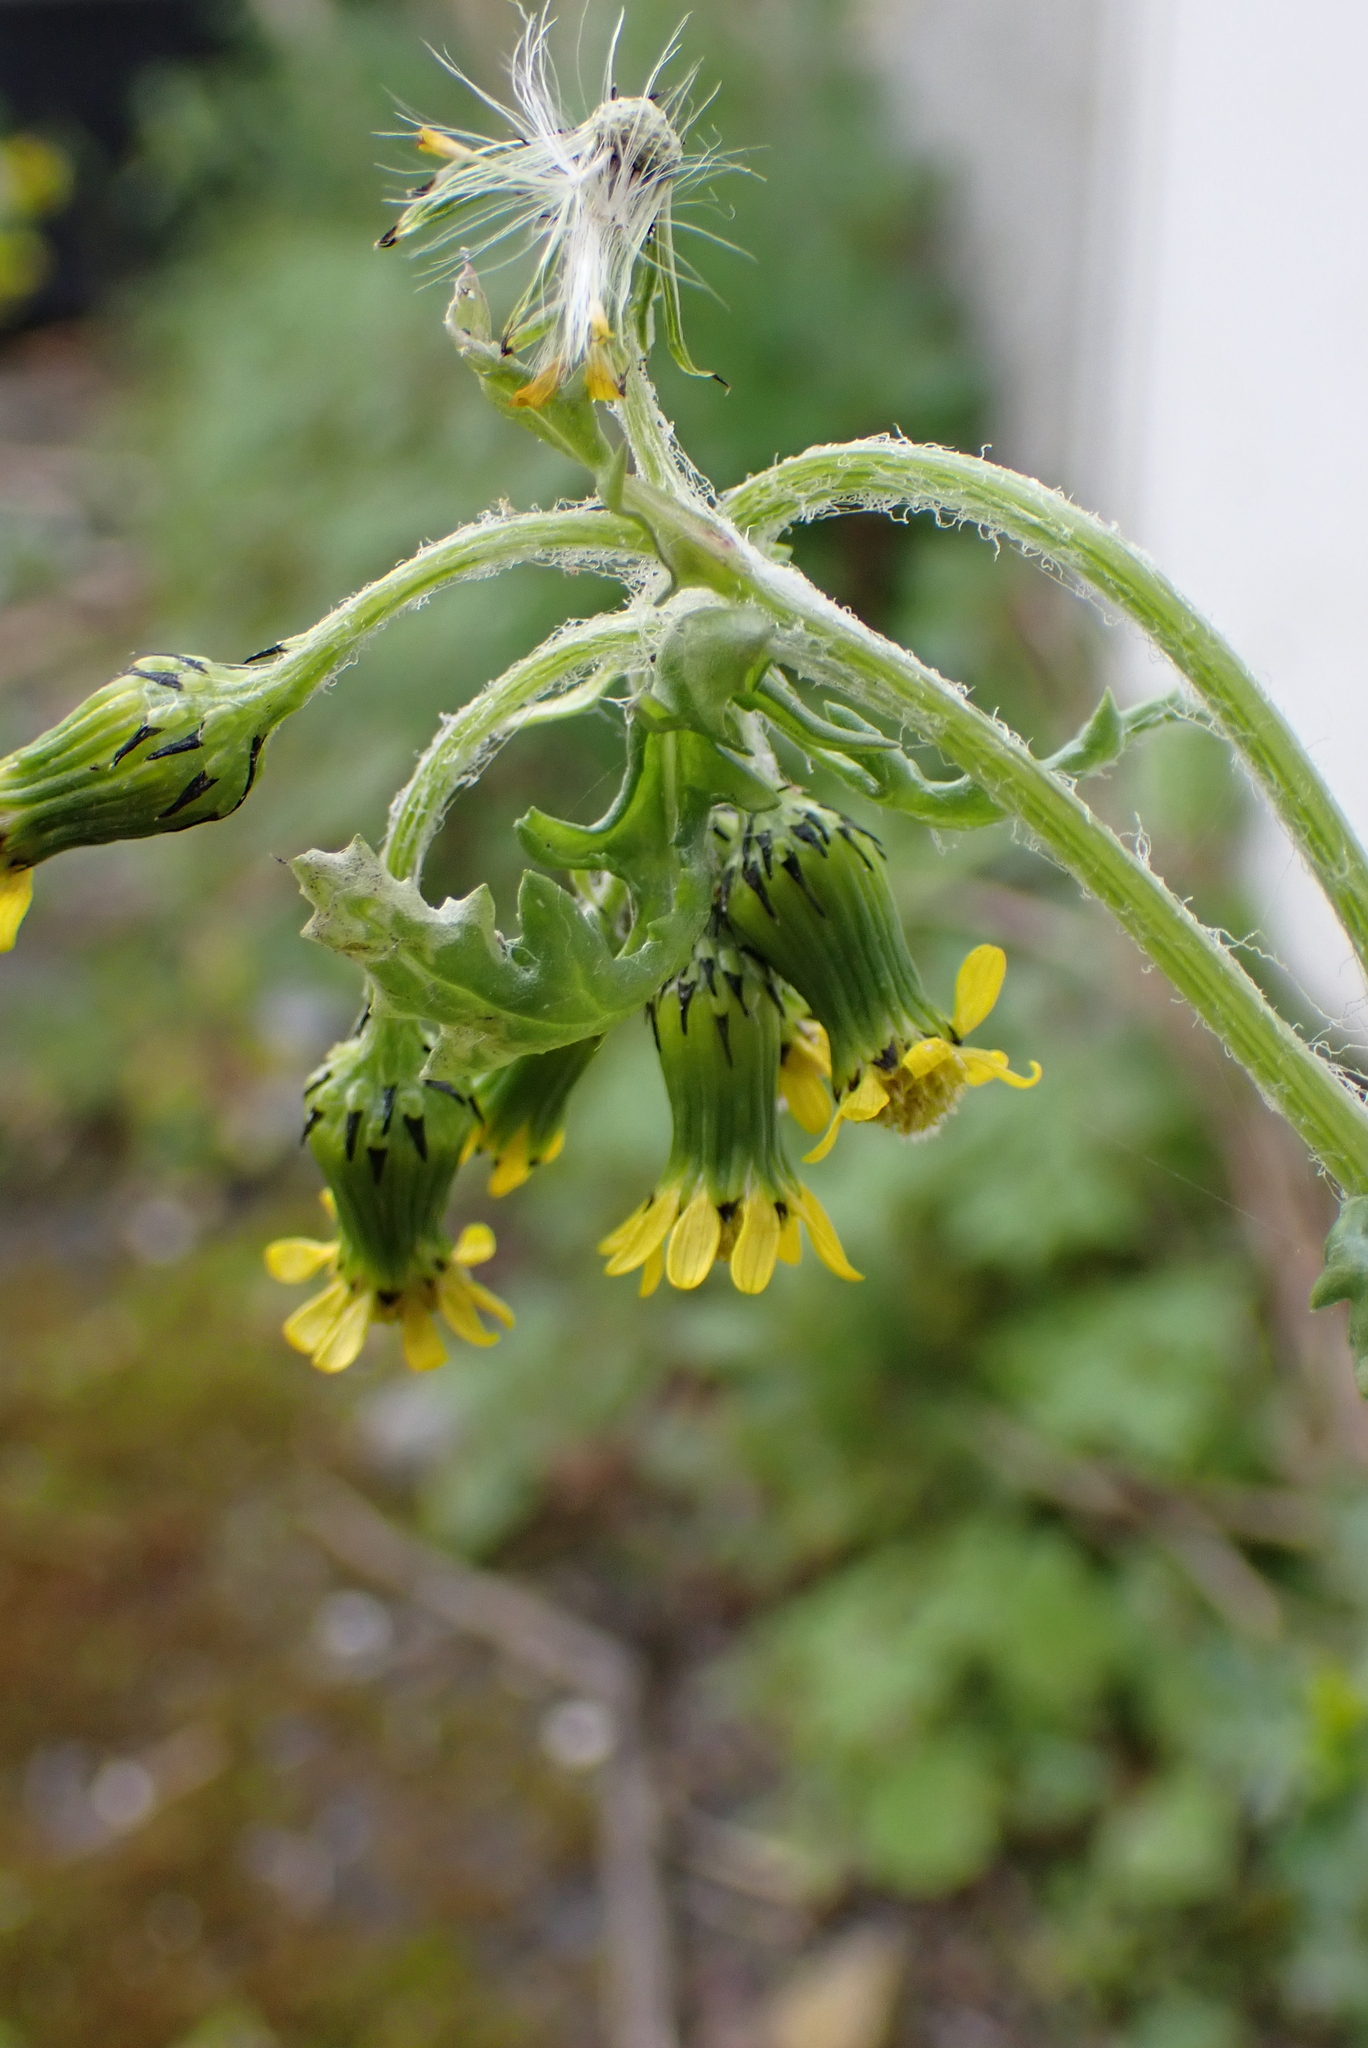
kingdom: Plantae
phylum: Tracheophyta
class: Magnoliopsida
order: Asterales
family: Asteraceae
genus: Senecio
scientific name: Senecio vulgaris
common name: Old-man-in-the-spring
